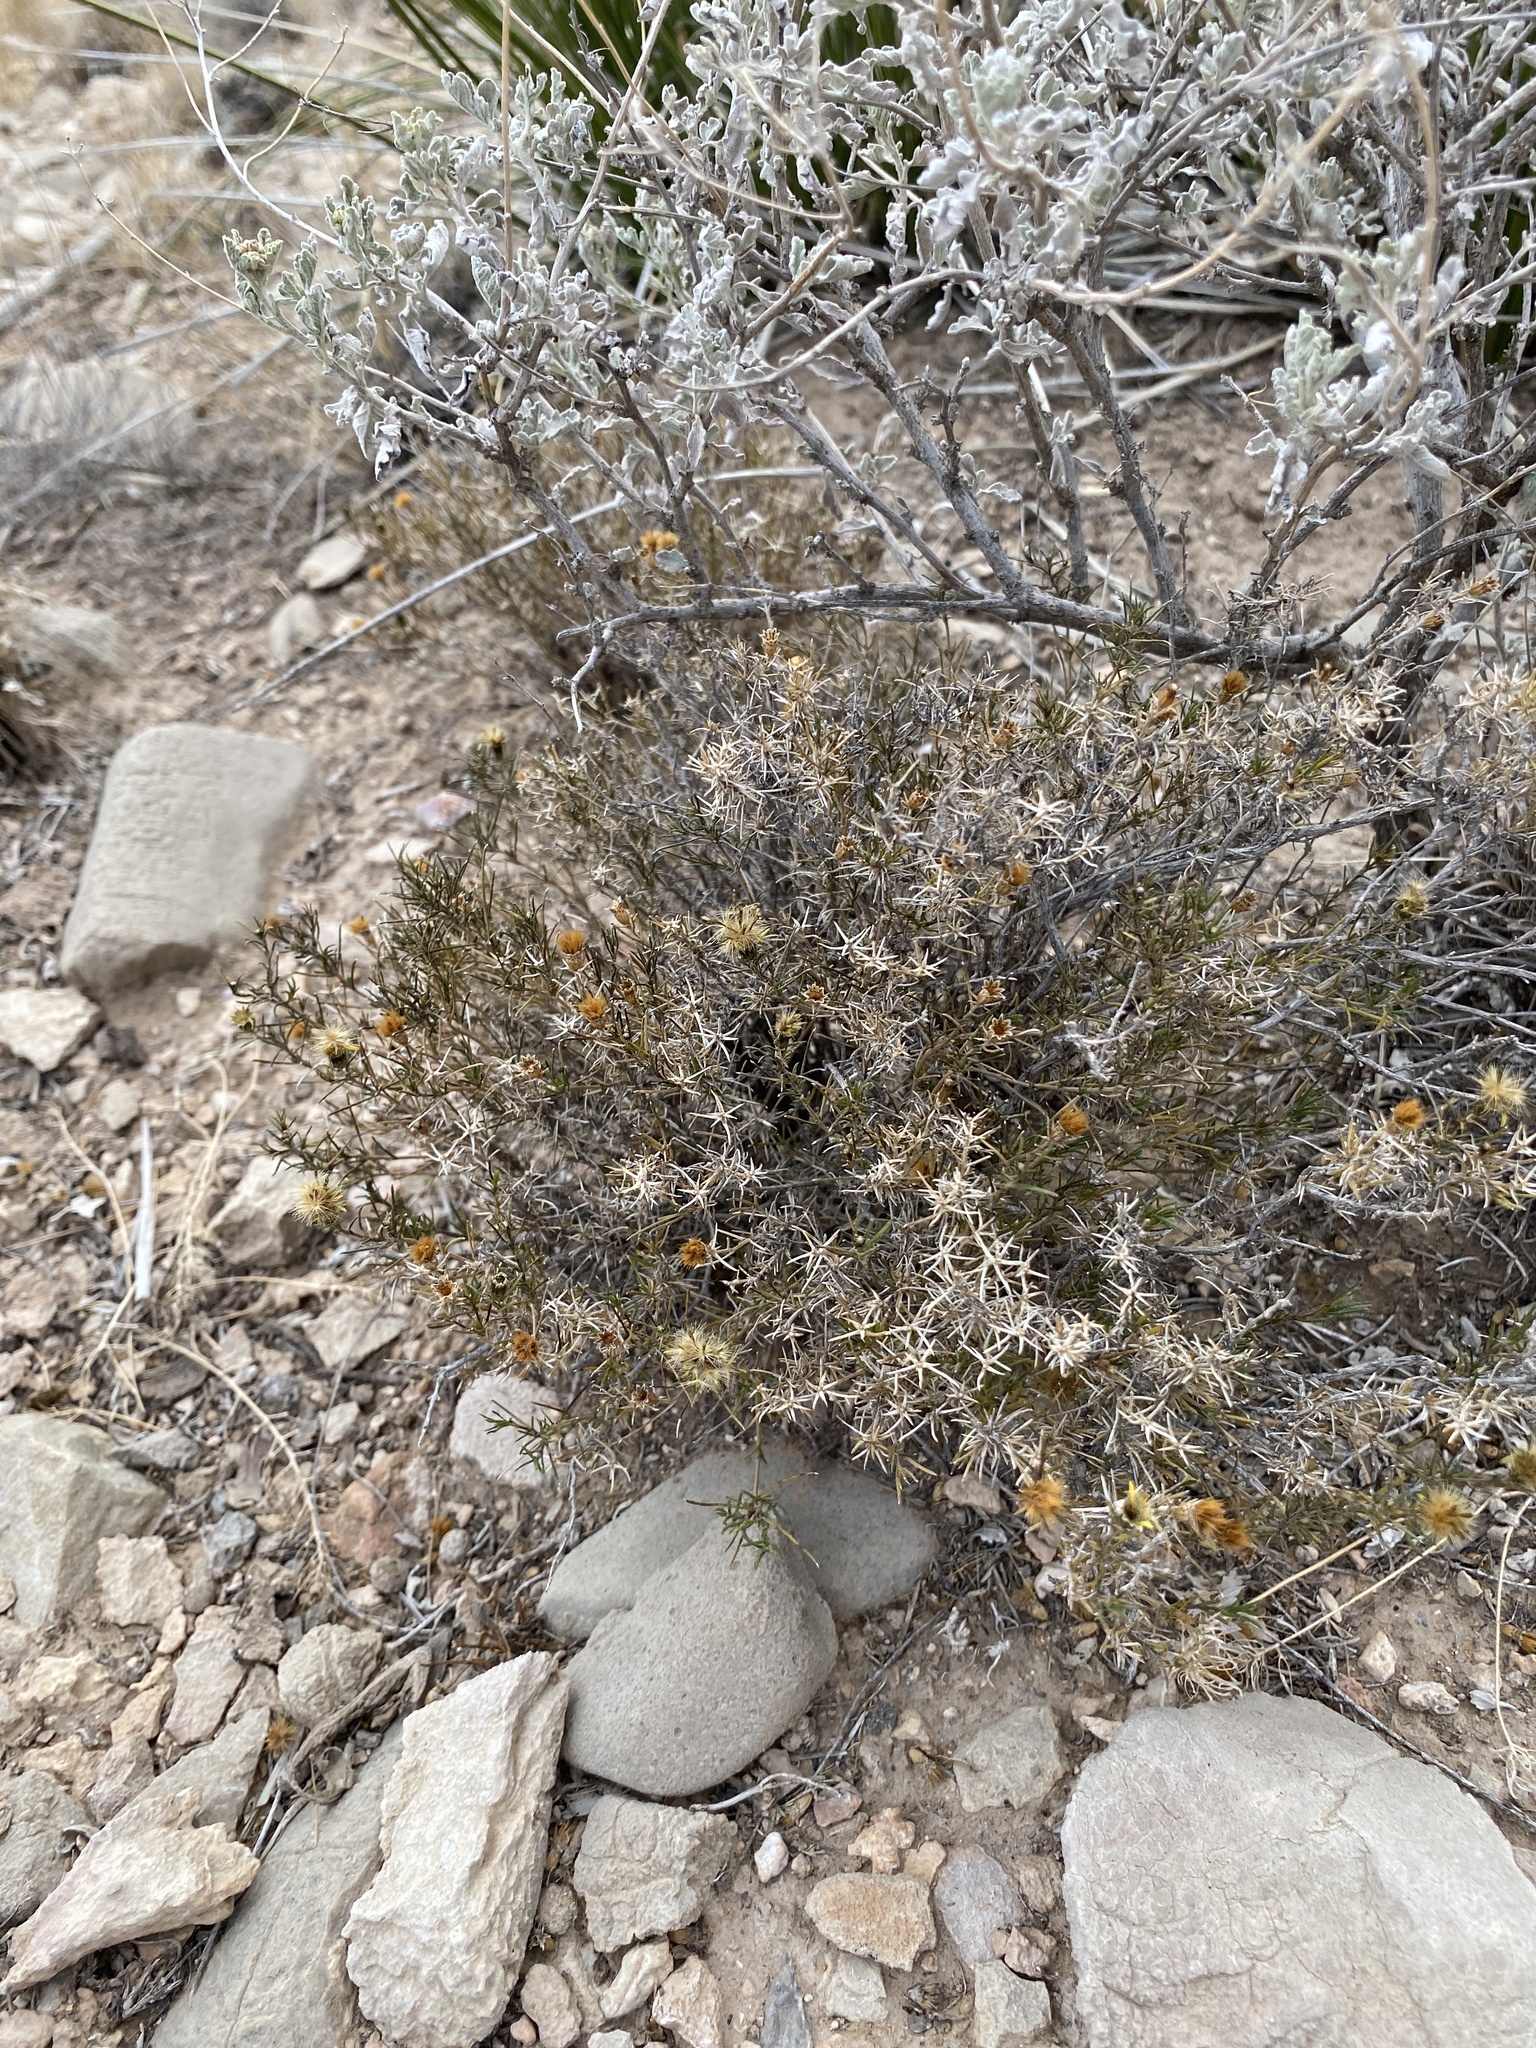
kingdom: Plantae
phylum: Tracheophyta
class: Magnoliopsida
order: Asterales
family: Asteraceae
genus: Thymophylla
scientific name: Thymophylla acerosa
